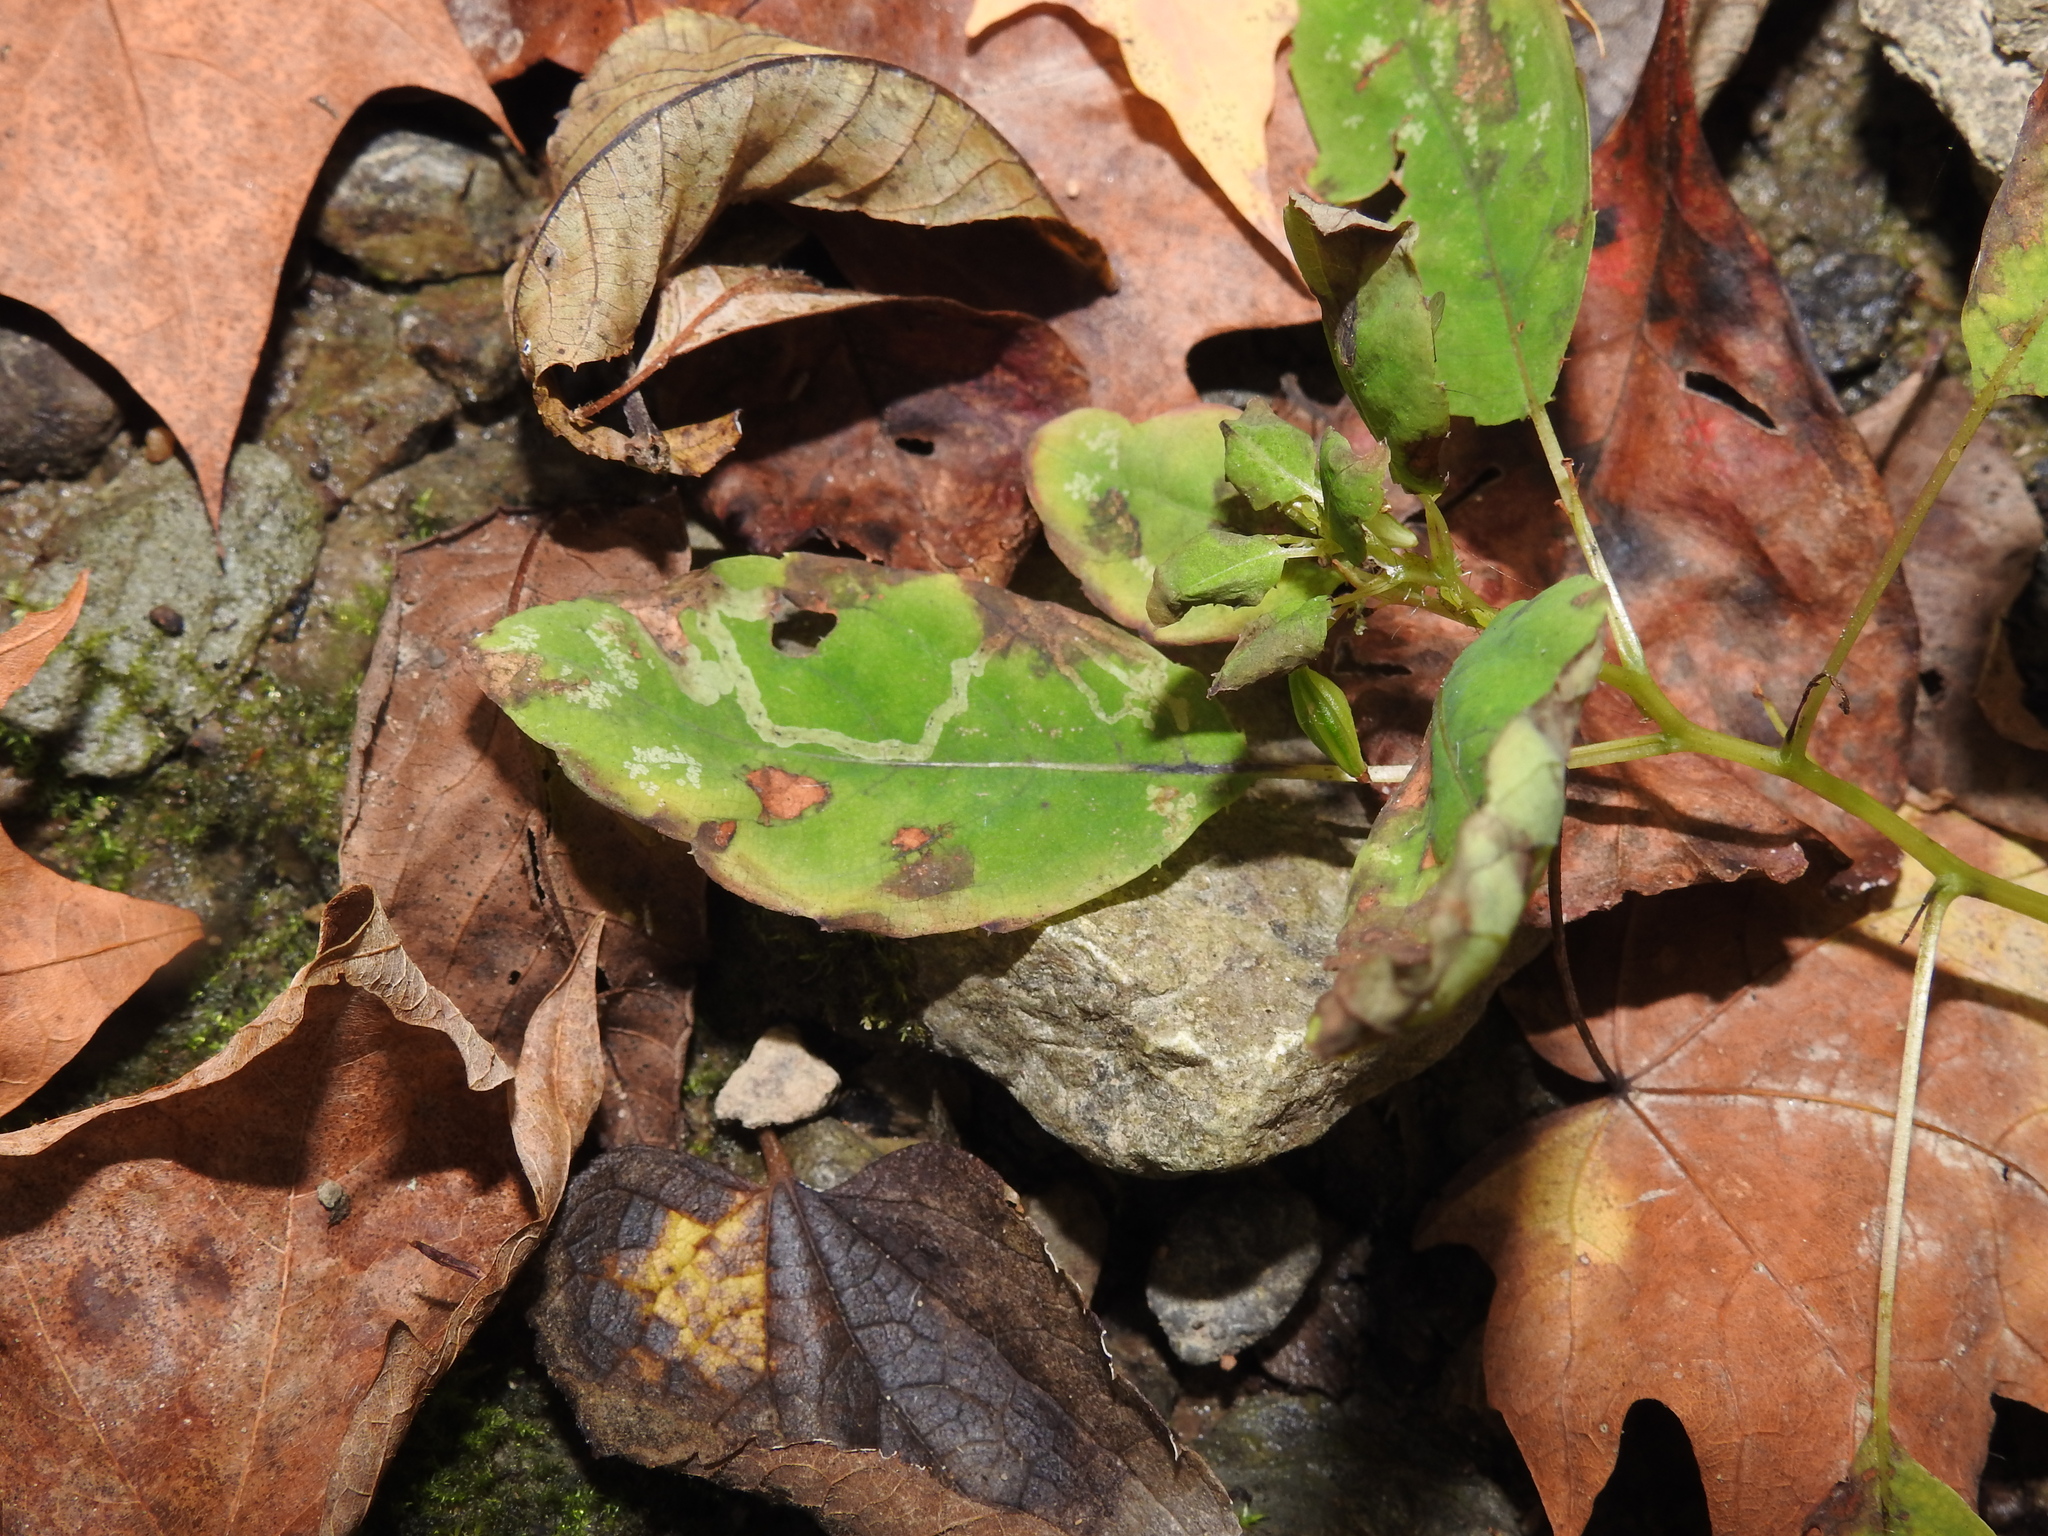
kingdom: Animalia
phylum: Arthropoda
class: Insecta
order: Diptera
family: Agromyzidae
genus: Phytoliriomyza
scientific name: Phytoliriomyza melampyga
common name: Jewelweed leaf-miner fly
